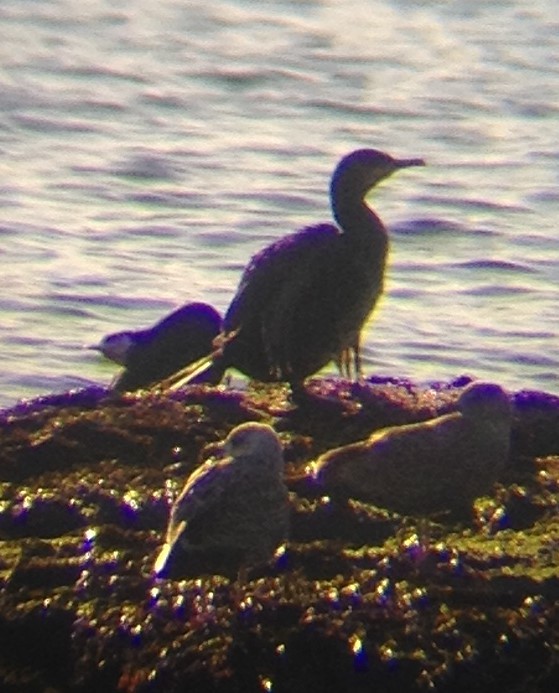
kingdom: Animalia
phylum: Chordata
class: Aves
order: Suliformes
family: Phalacrocoracidae
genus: Phalacrocorax
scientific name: Phalacrocorax auritus
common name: Double-crested cormorant
